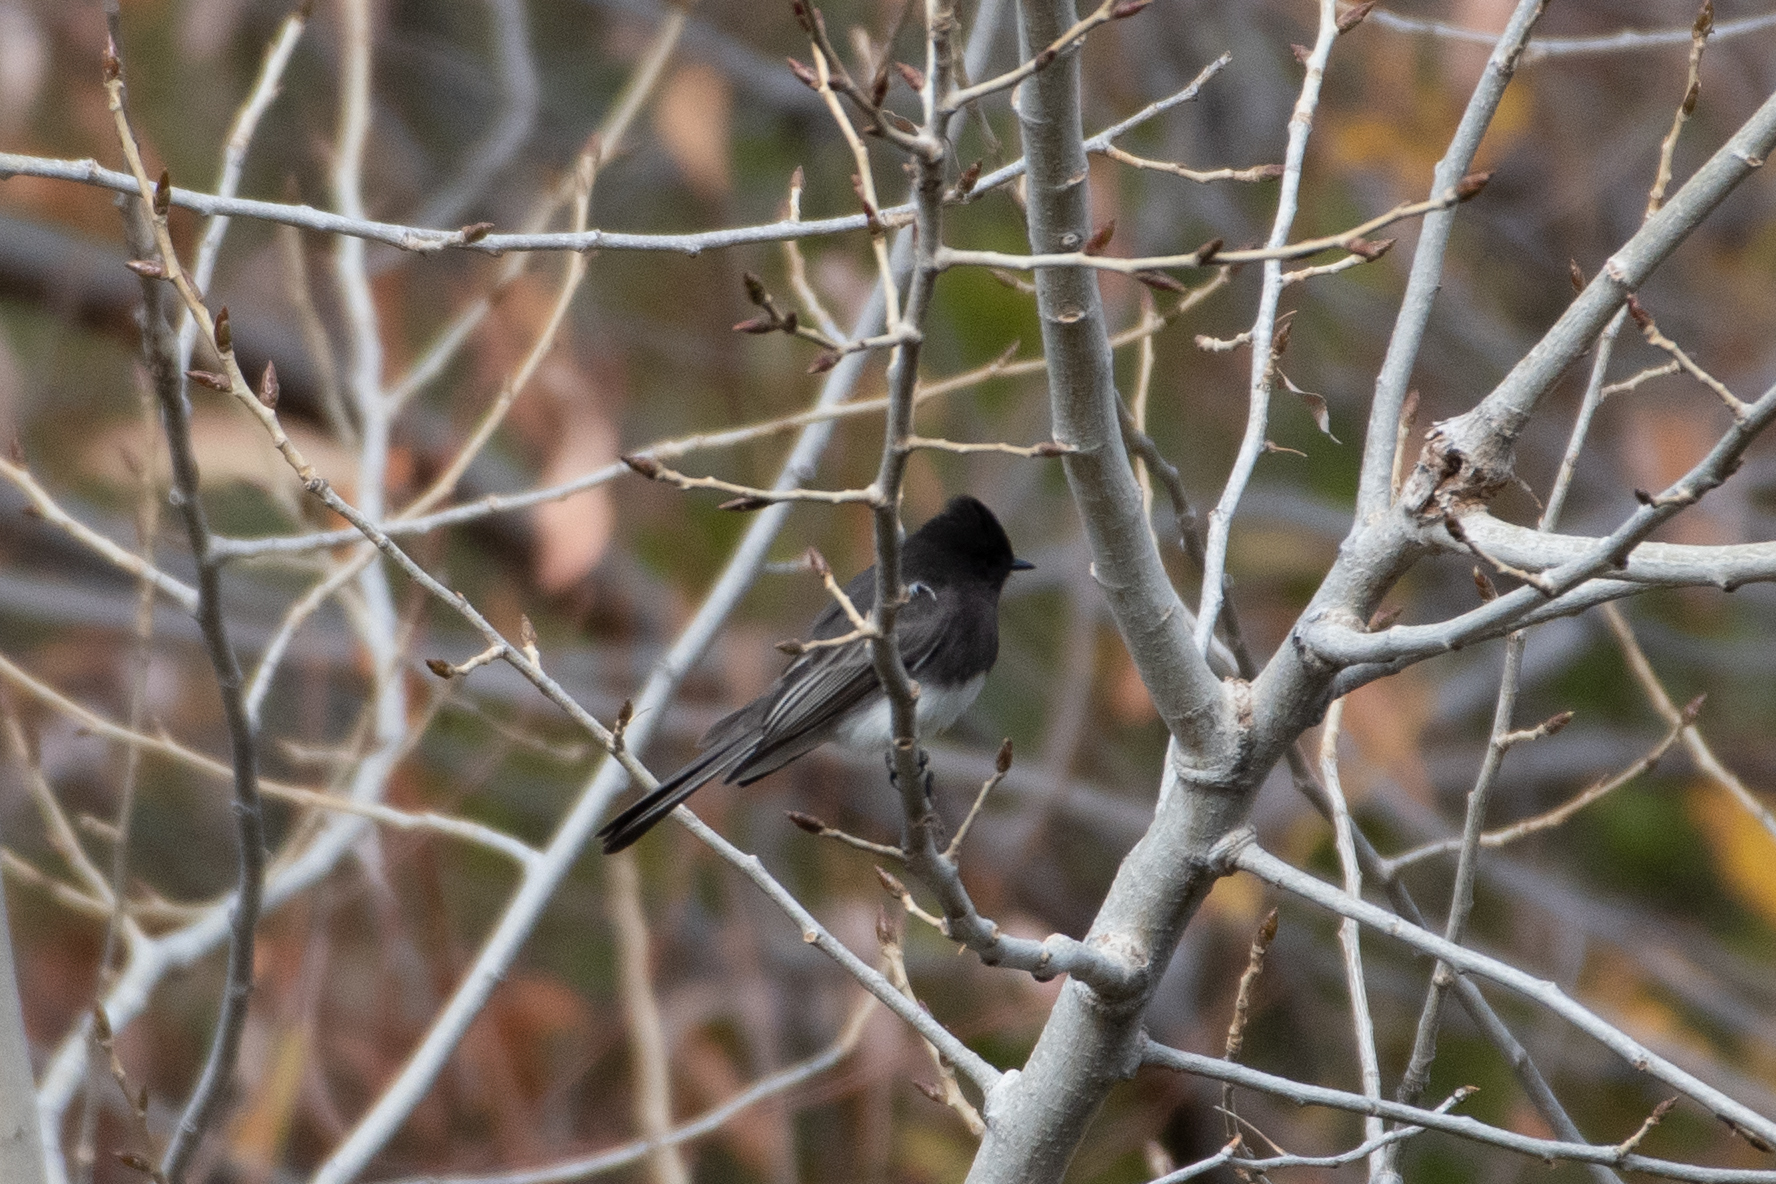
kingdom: Animalia
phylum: Chordata
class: Aves
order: Passeriformes
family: Tyrannidae
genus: Sayornis
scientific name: Sayornis nigricans
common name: Black phoebe
